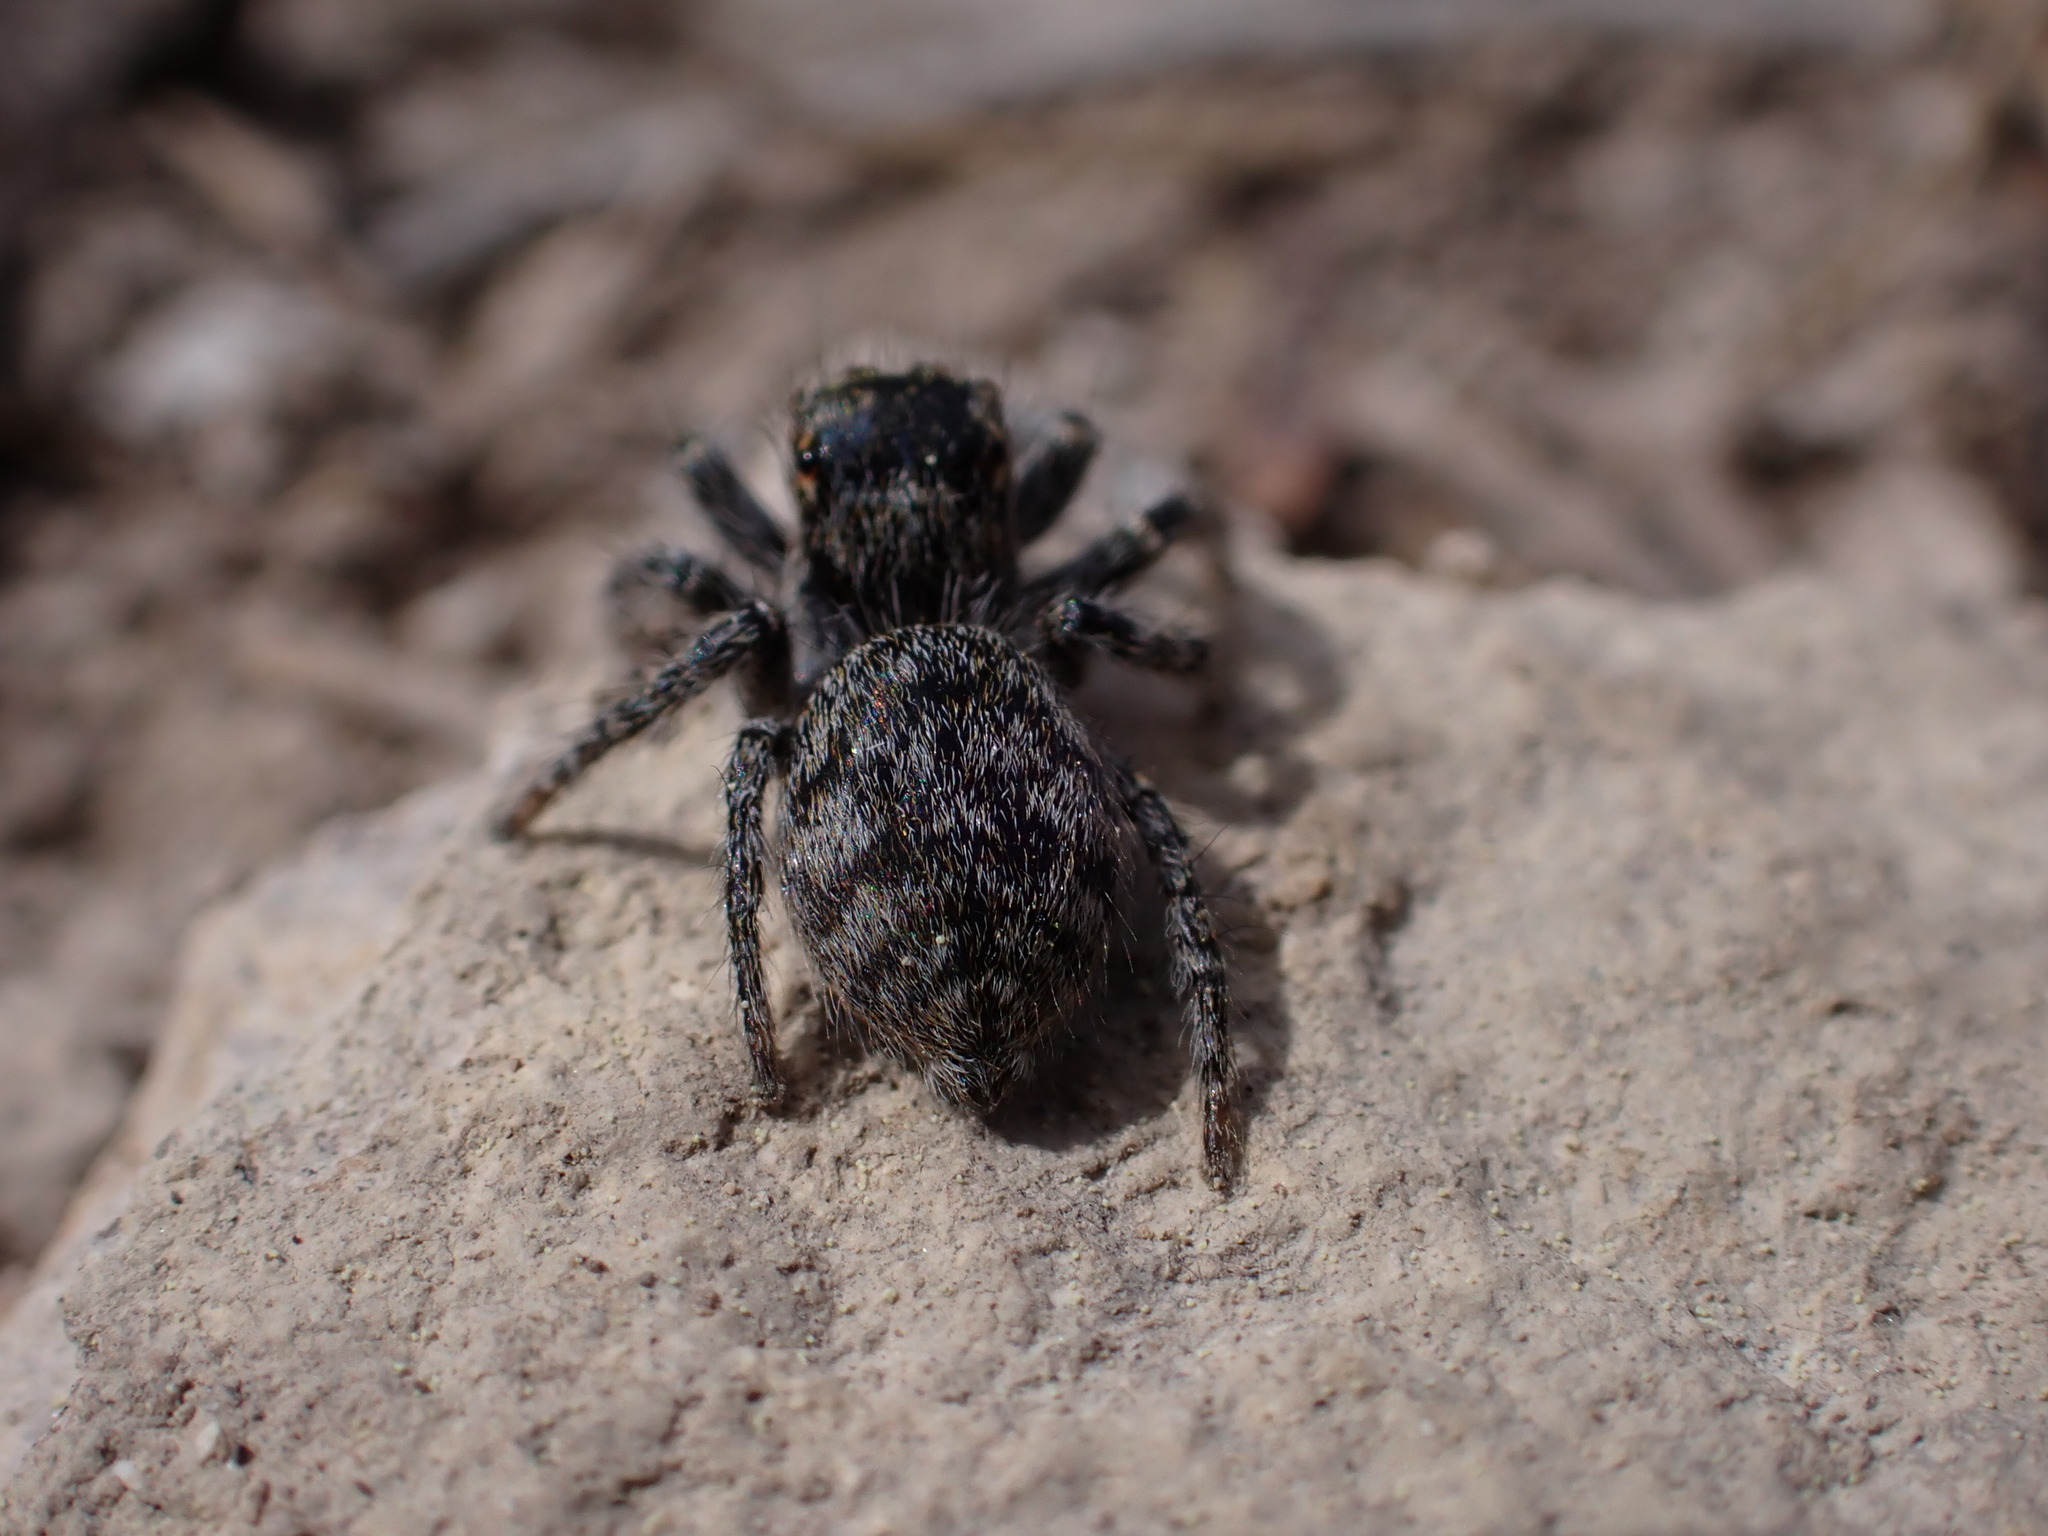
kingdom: Animalia
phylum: Arthropoda
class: Arachnida
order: Araneae
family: Salticidae
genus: Philaeus
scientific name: Philaeus chrysops
